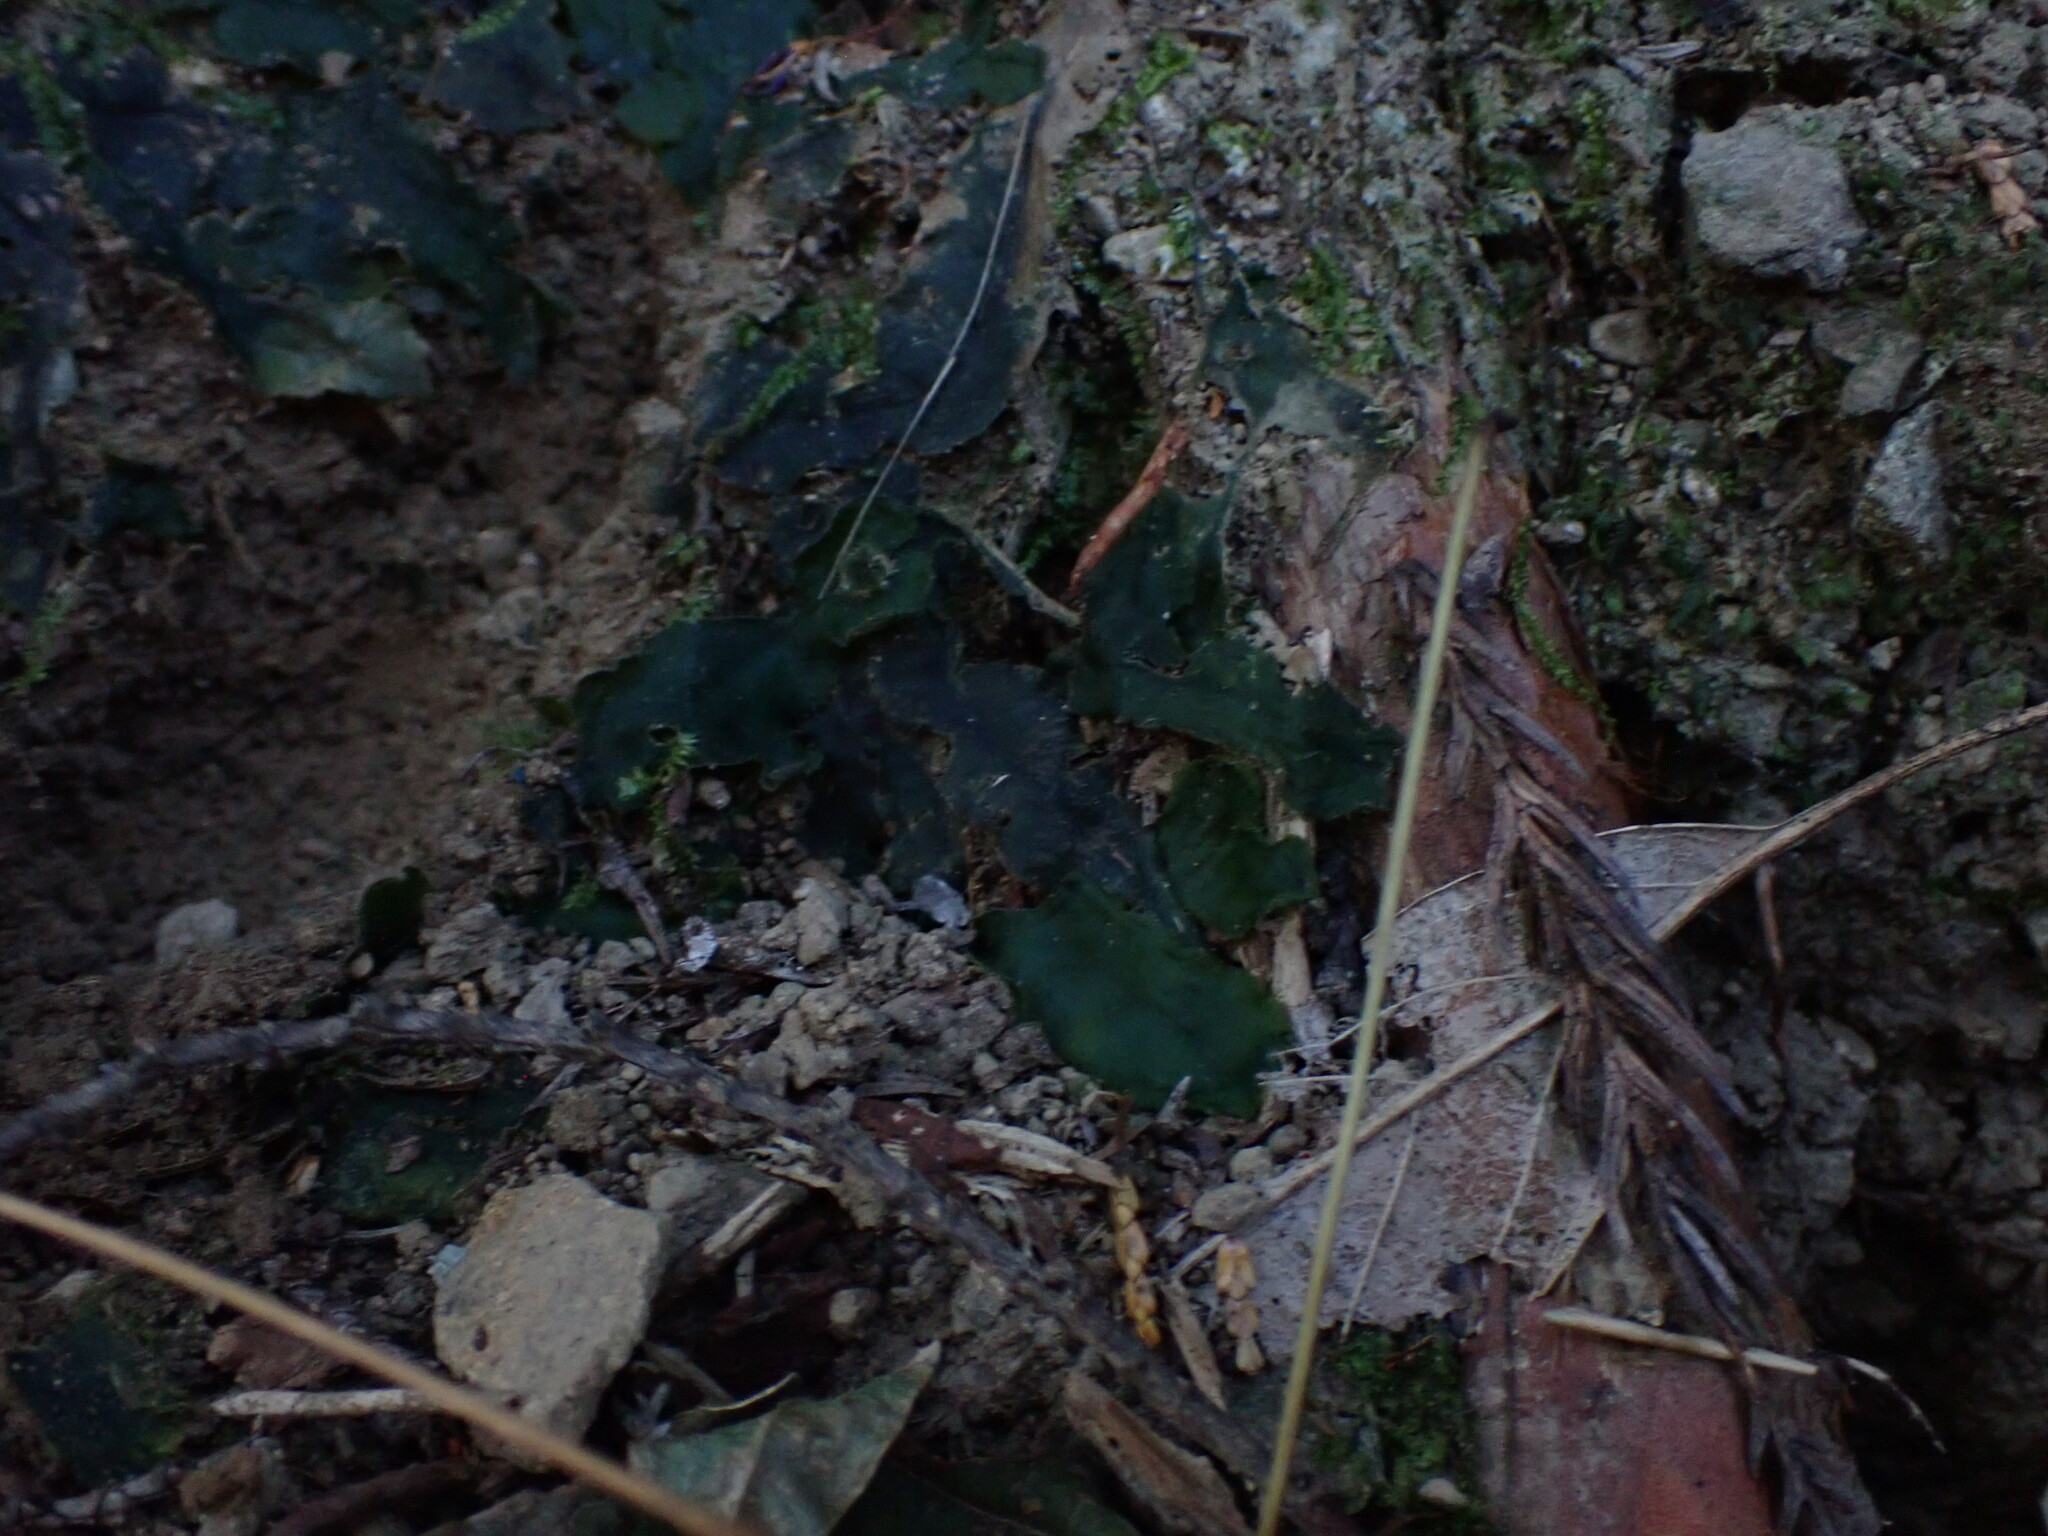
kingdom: Plantae
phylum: Marchantiophyta
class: Marchantiopsida
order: Marchantiales
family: Dumortieraceae
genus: Dumortiera
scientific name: Dumortiera hirsuta
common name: Dumortier's liverwort
